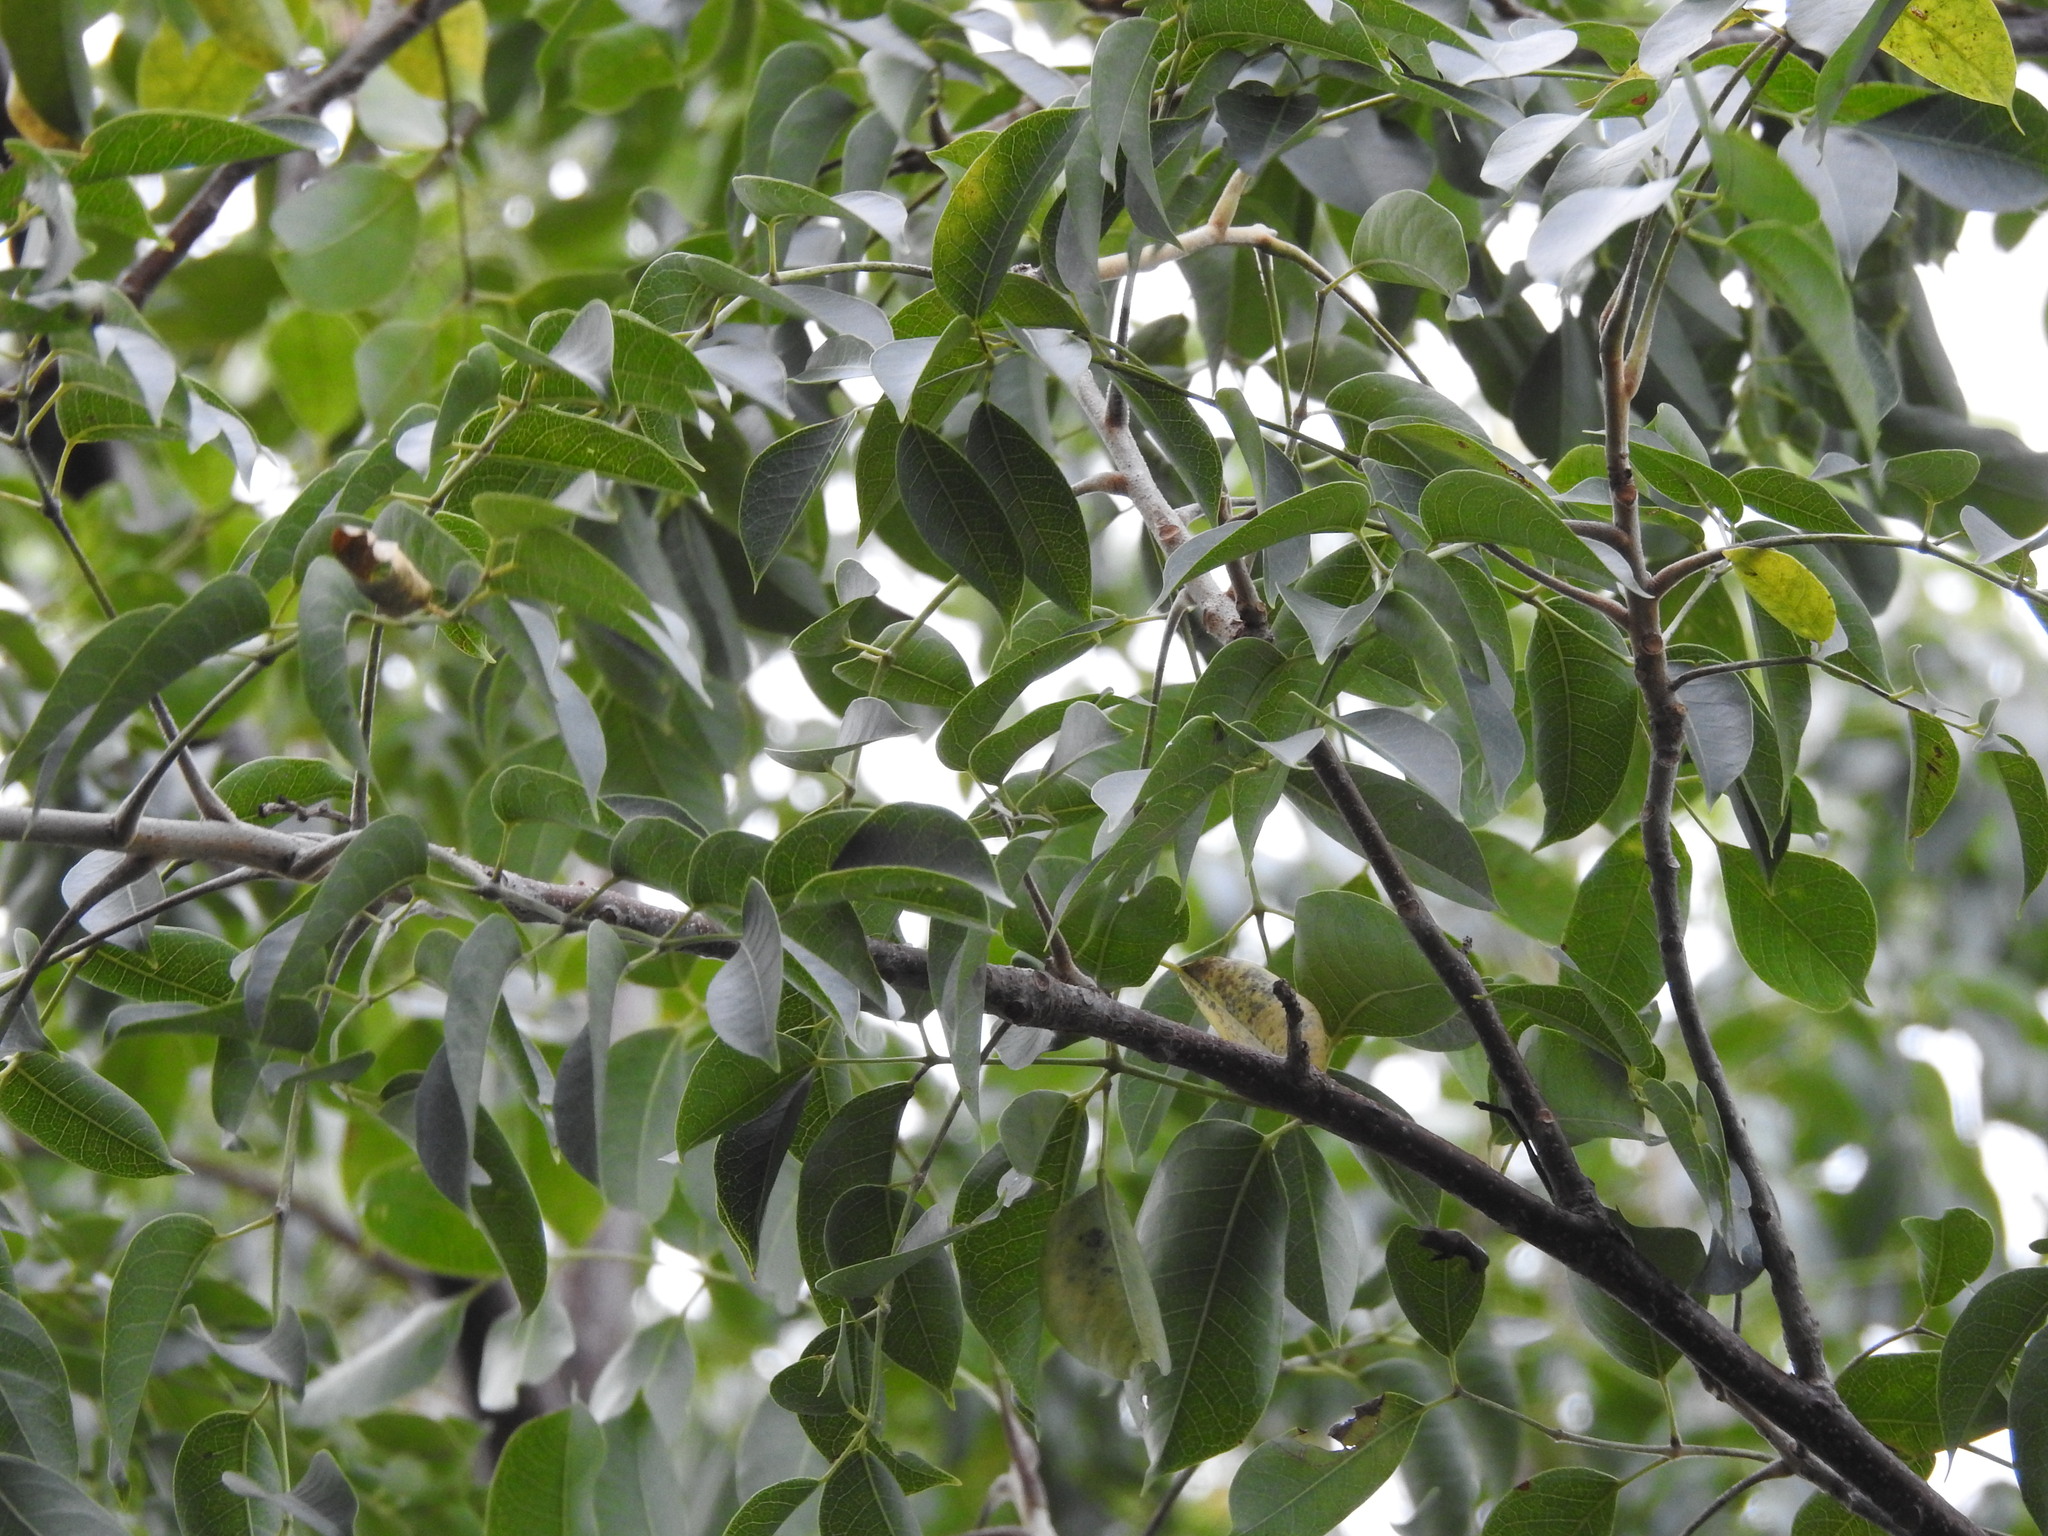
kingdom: Plantae
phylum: Tracheophyta
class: Magnoliopsida
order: Sapindales
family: Burseraceae
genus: Bursera
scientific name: Bursera simaruba
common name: Turpentine tree
